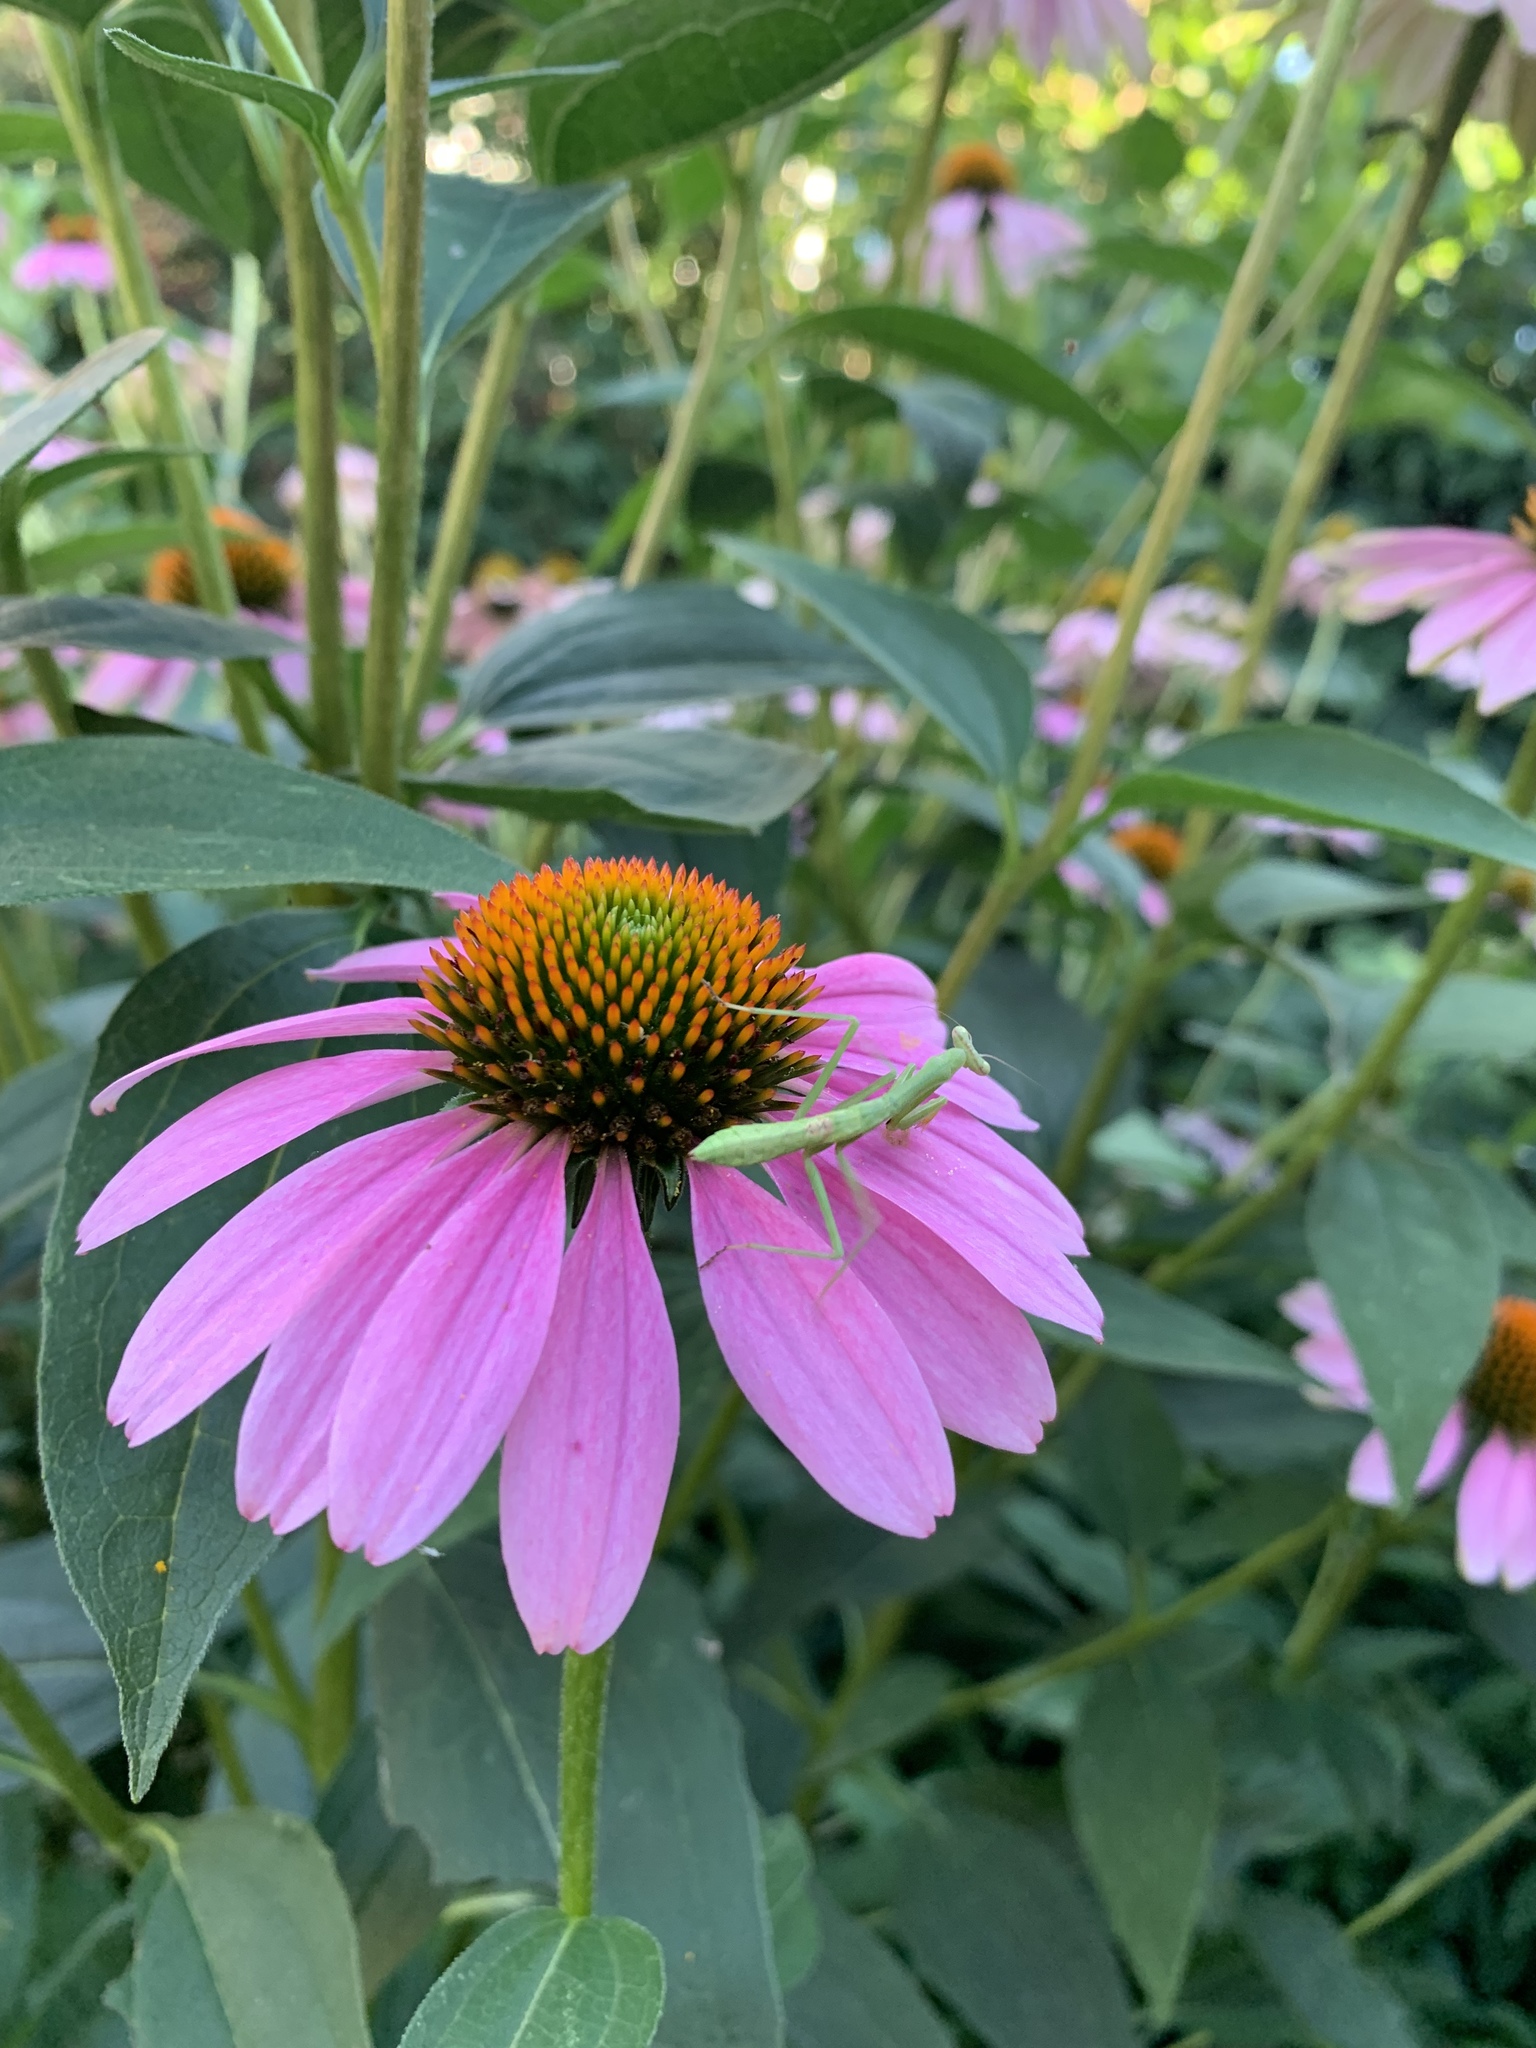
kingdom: Animalia
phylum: Arthropoda
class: Insecta
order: Mantodea
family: Mantidae
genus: Stagmomantis
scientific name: Stagmomantis carolina
